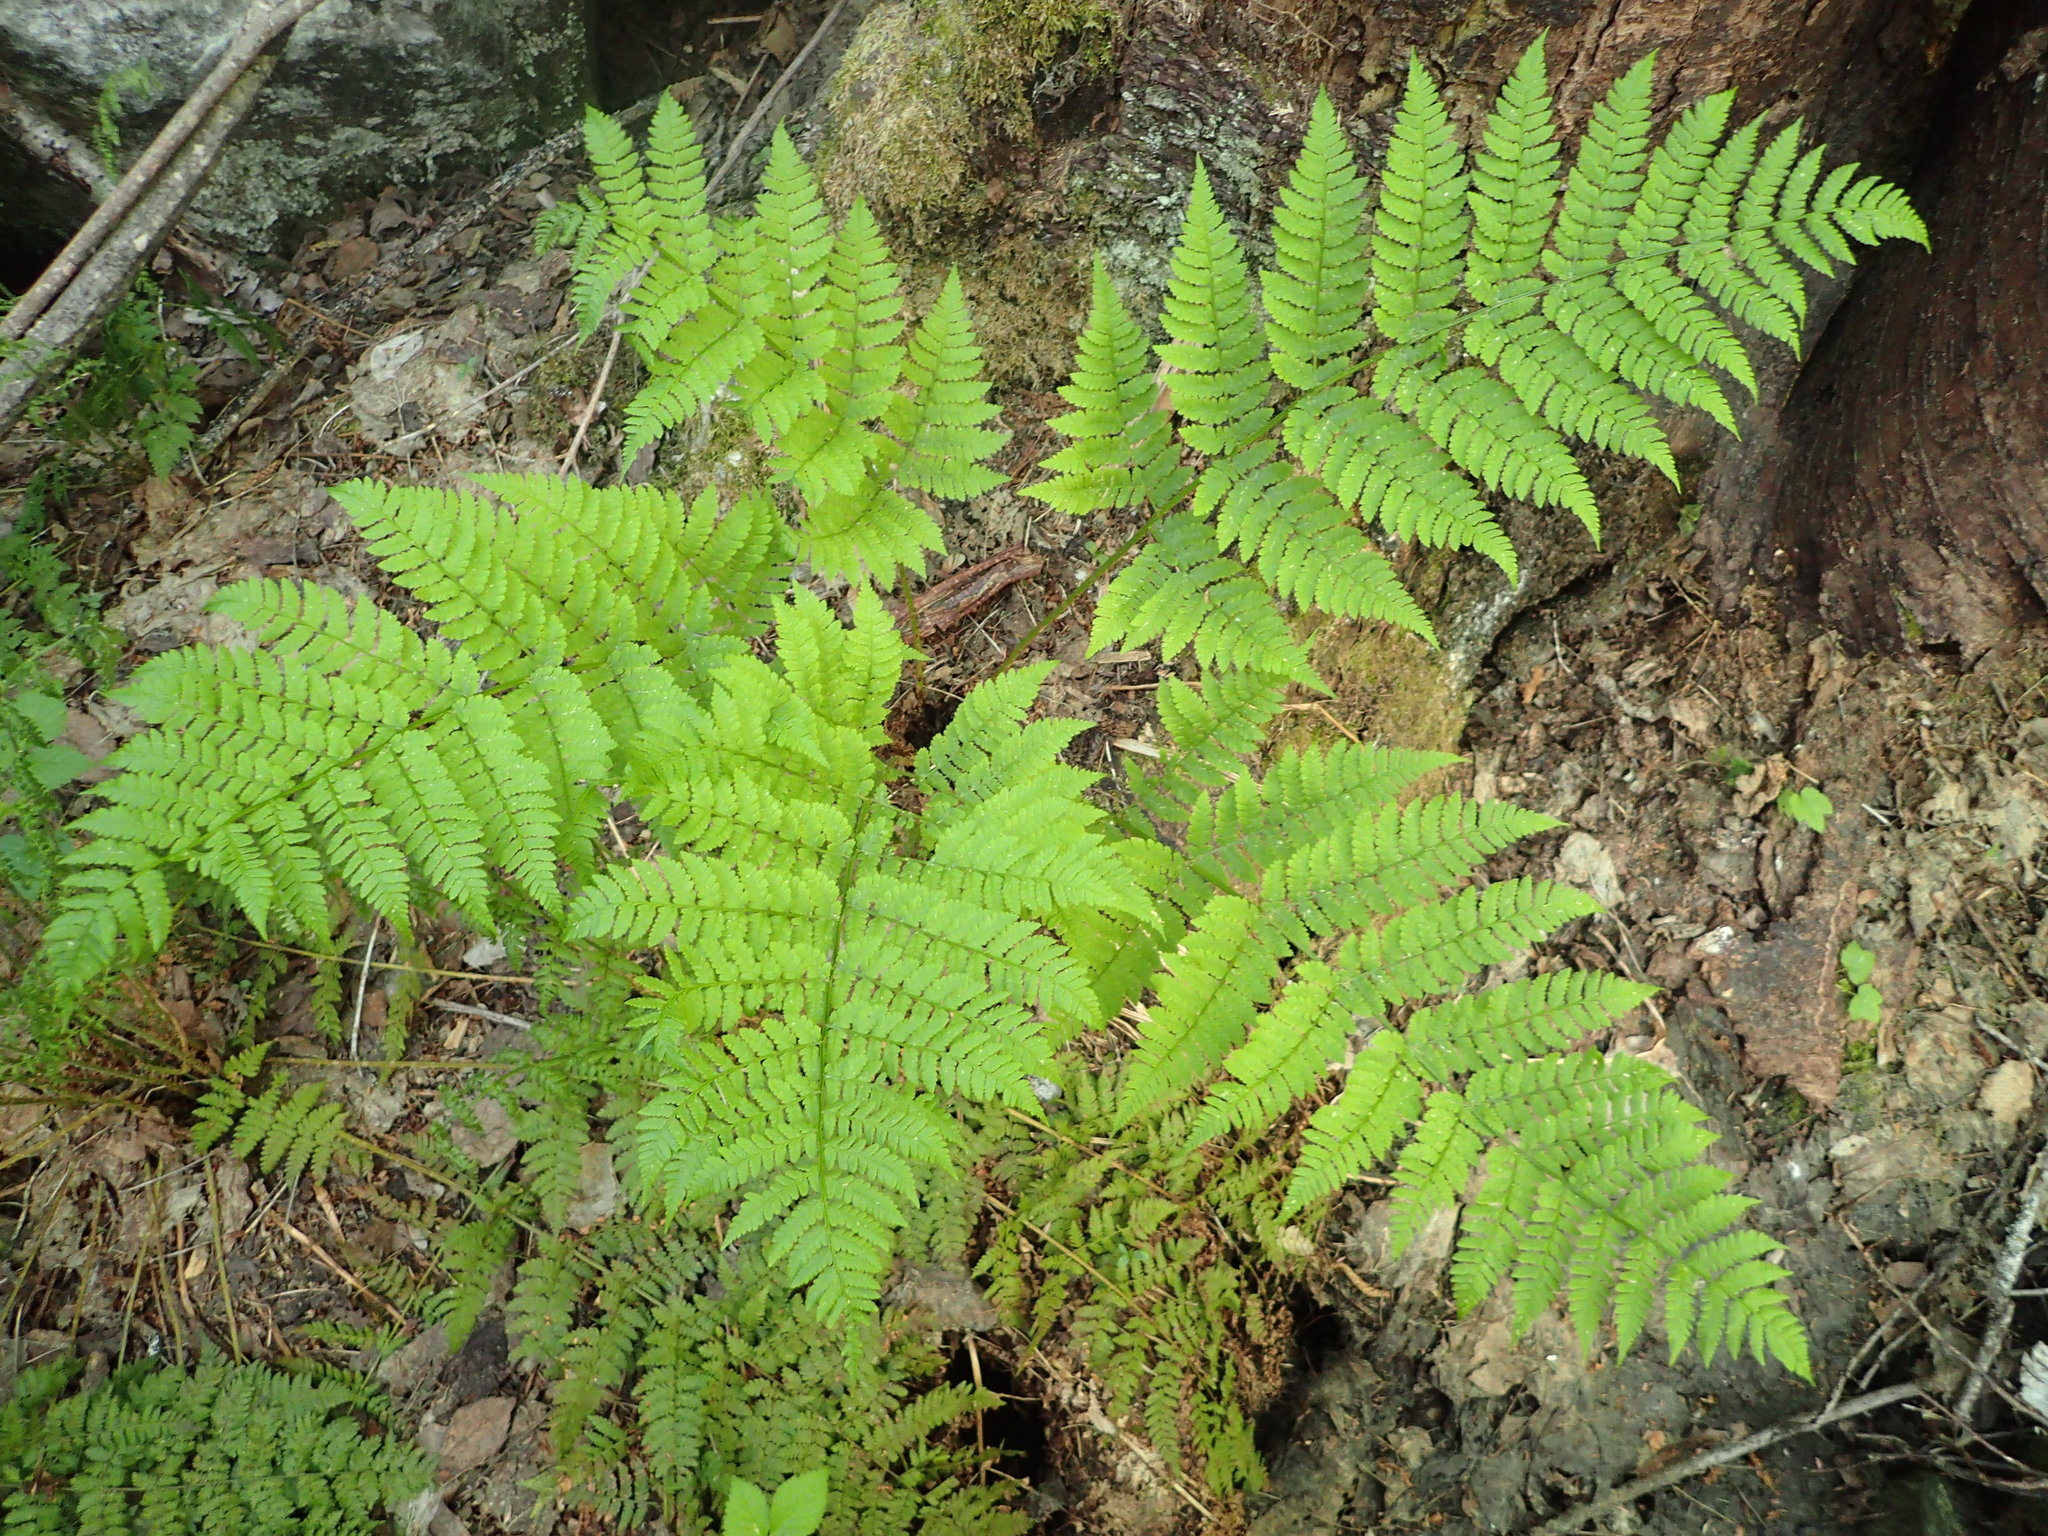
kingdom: Plantae
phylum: Tracheophyta
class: Polypodiopsida
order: Polypodiales
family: Dryopteridaceae
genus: Dryopteris
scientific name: Dryopteris expansa
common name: Northern buckler fern
